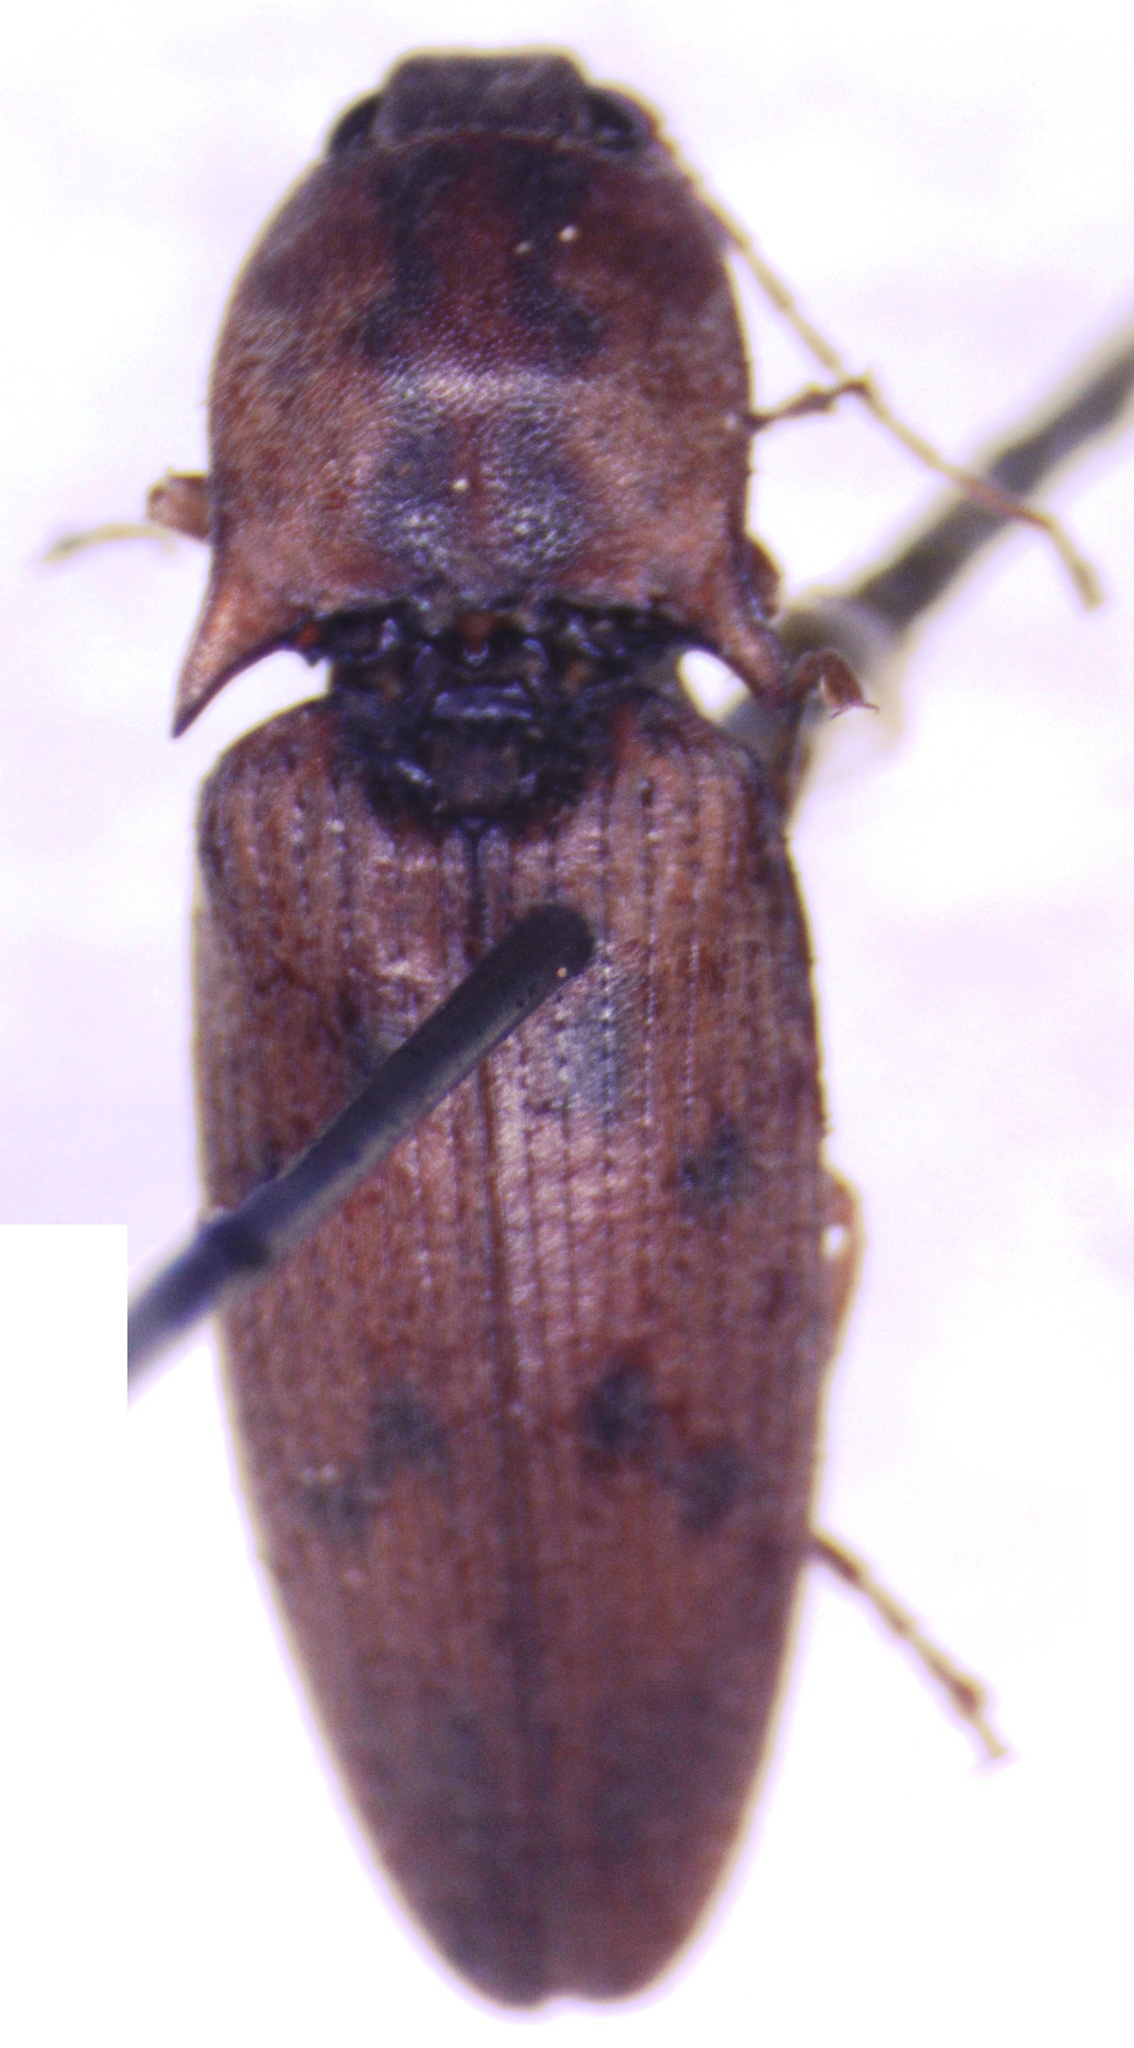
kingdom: Animalia
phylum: Arthropoda
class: Insecta
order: Coleoptera
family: Elateridae
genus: Monocrepidius
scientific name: Monocrepidius nocturnus
